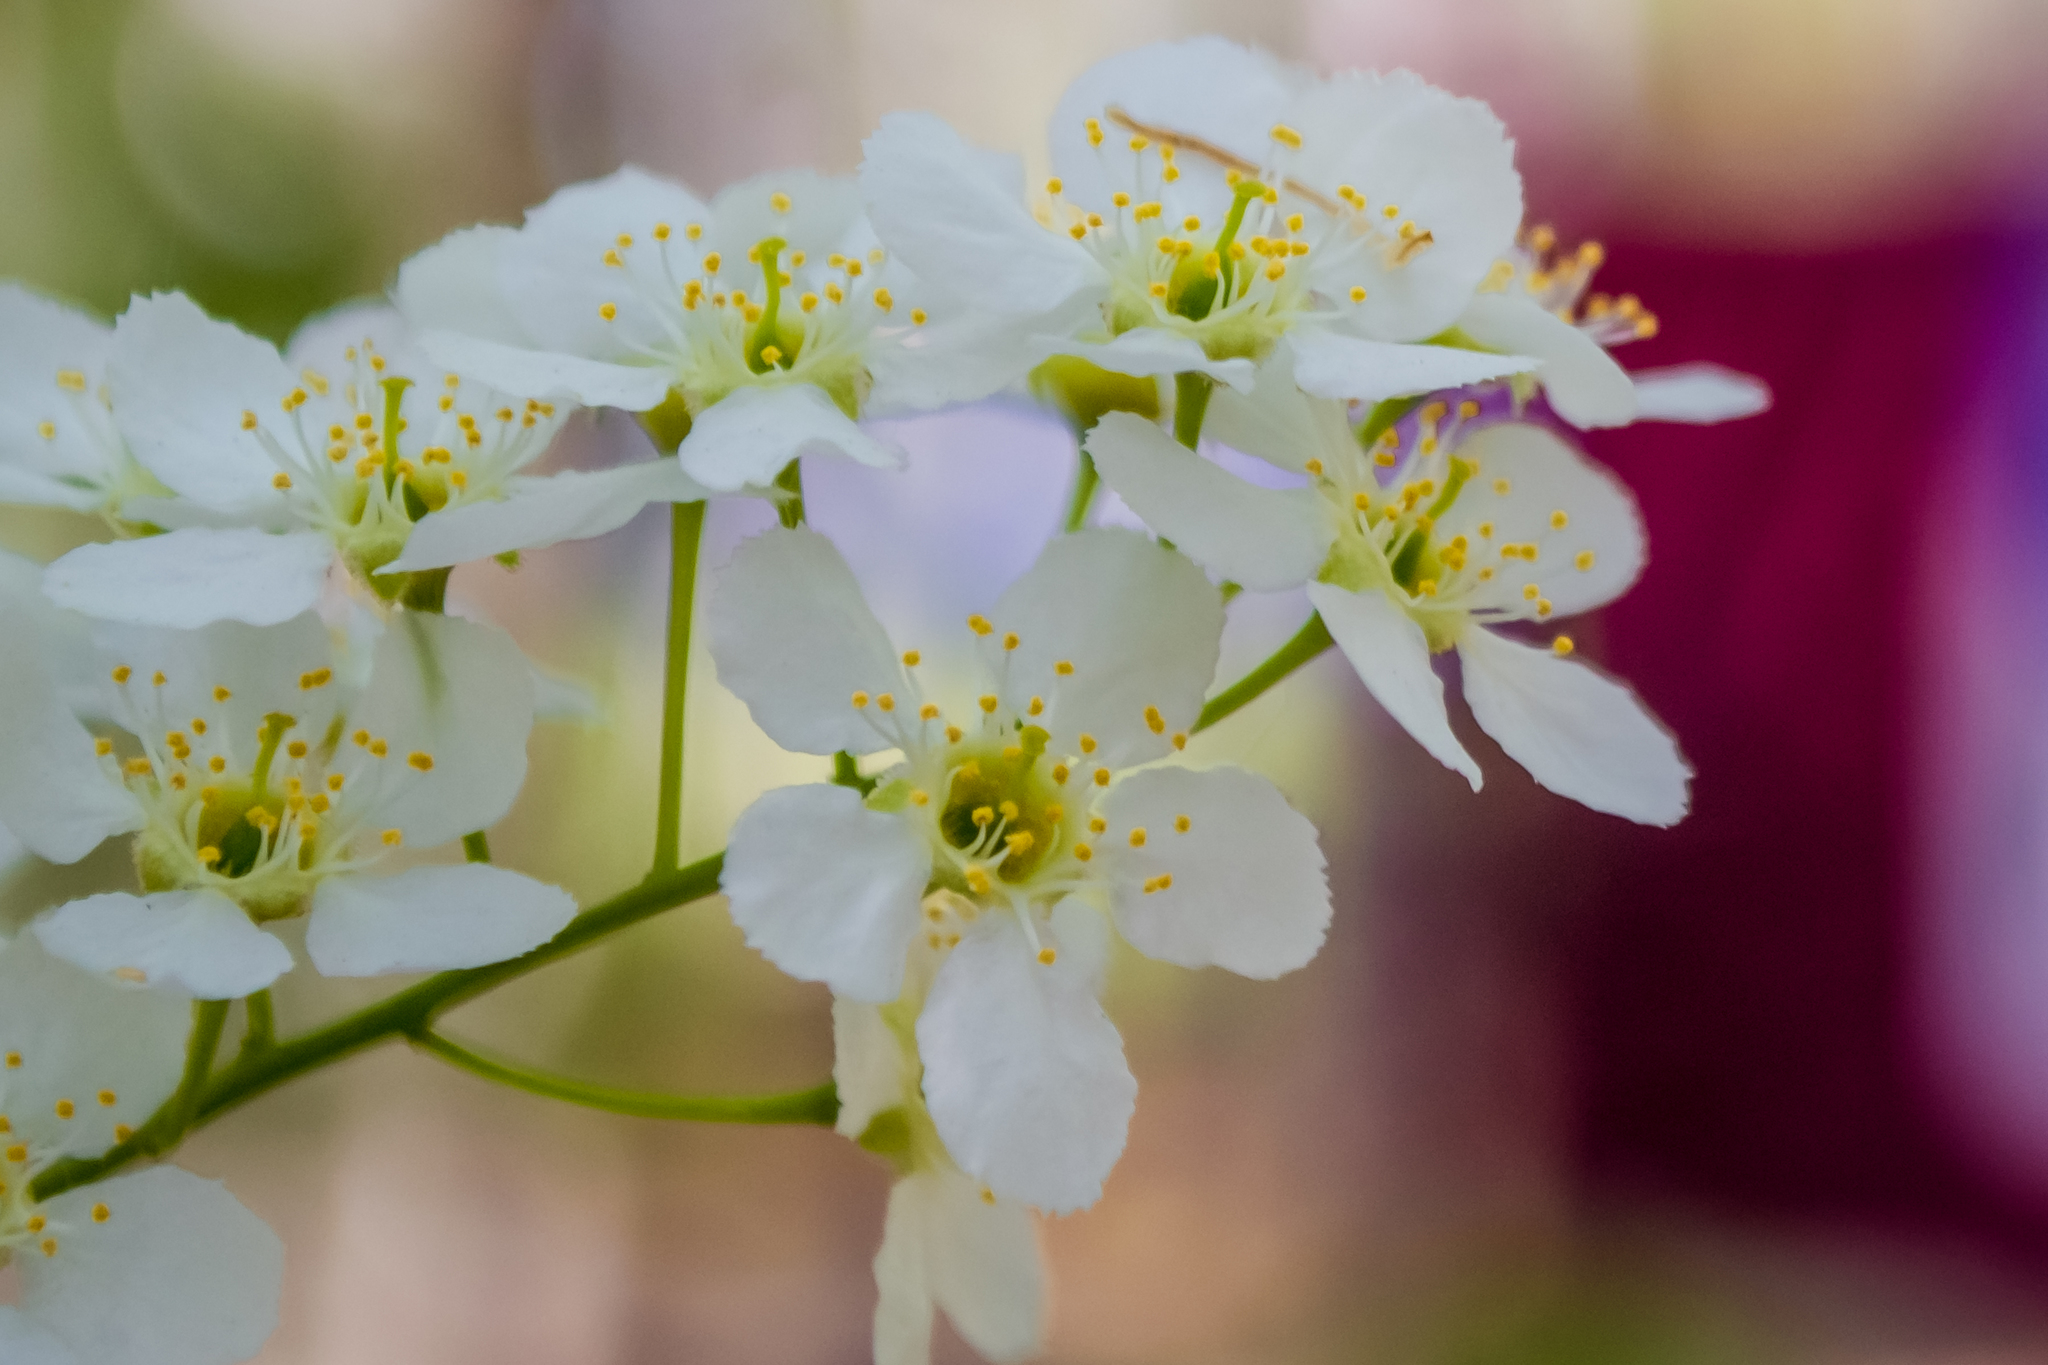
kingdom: Plantae
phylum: Tracheophyta
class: Magnoliopsida
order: Rosales
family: Rosaceae
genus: Prunus
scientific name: Prunus padus
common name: Bird cherry
